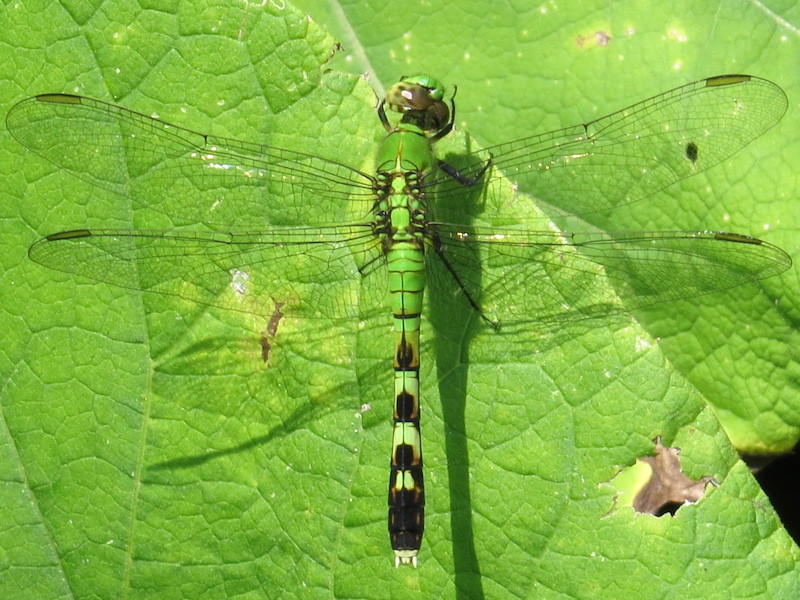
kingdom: Animalia
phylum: Arthropoda
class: Insecta
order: Odonata
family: Libellulidae
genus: Erythemis
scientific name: Erythemis simplicicollis
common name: Eastern pondhawk
